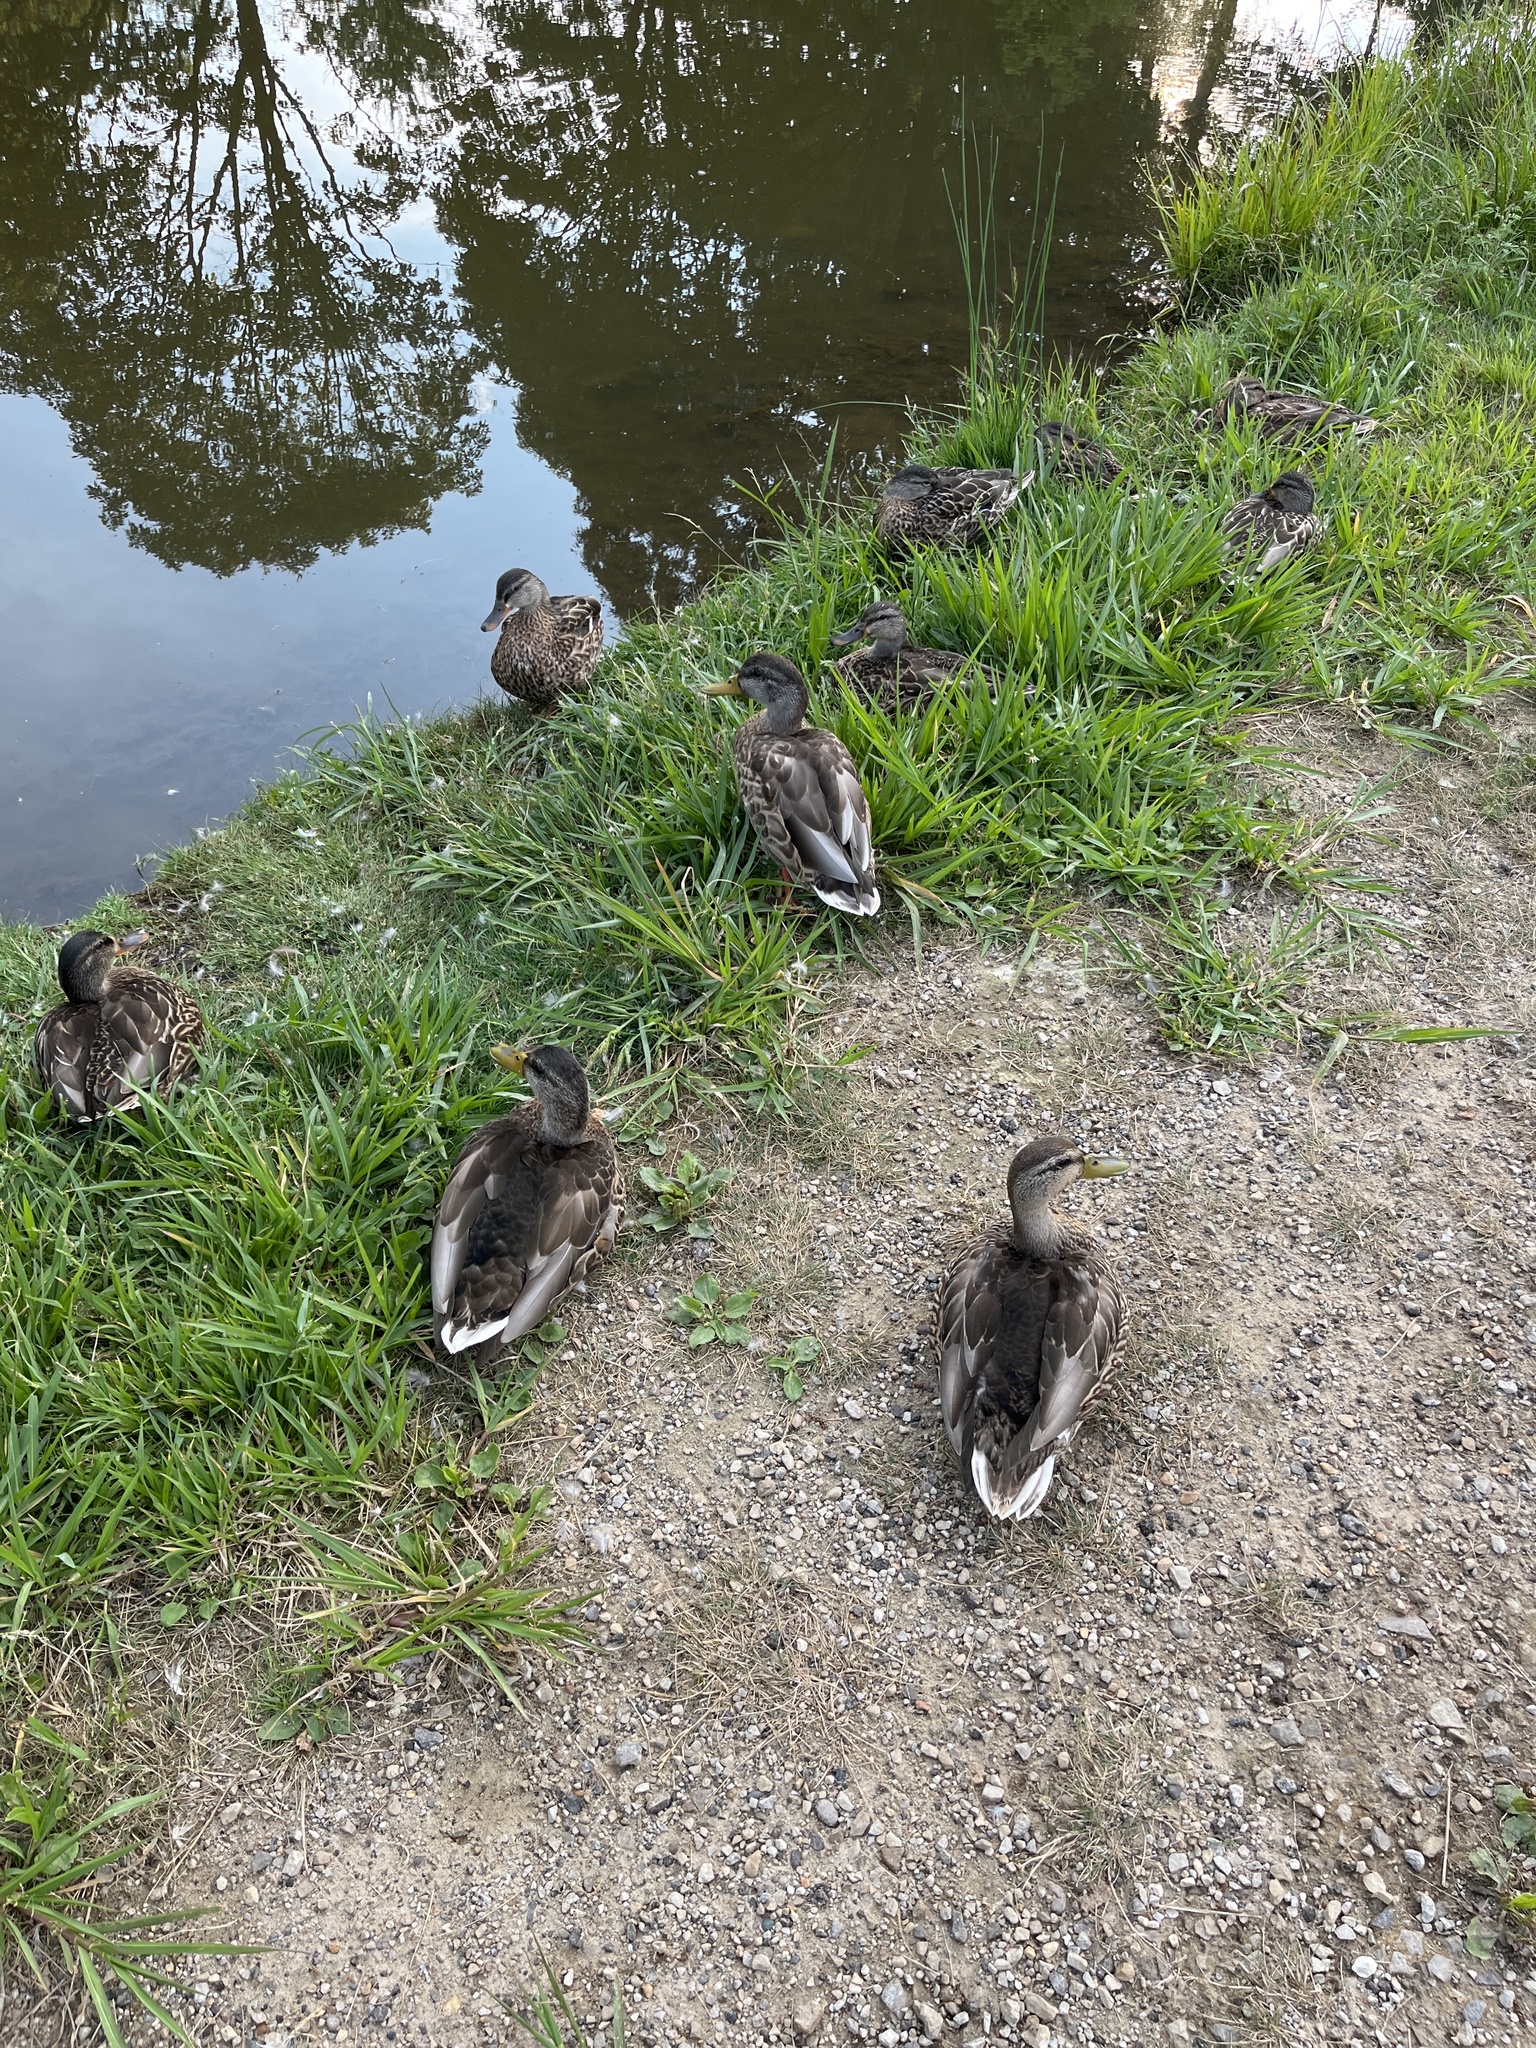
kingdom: Animalia
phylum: Chordata
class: Aves
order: Anseriformes
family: Anatidae
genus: Anas
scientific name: Anas platyrhynchos
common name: Mallard
